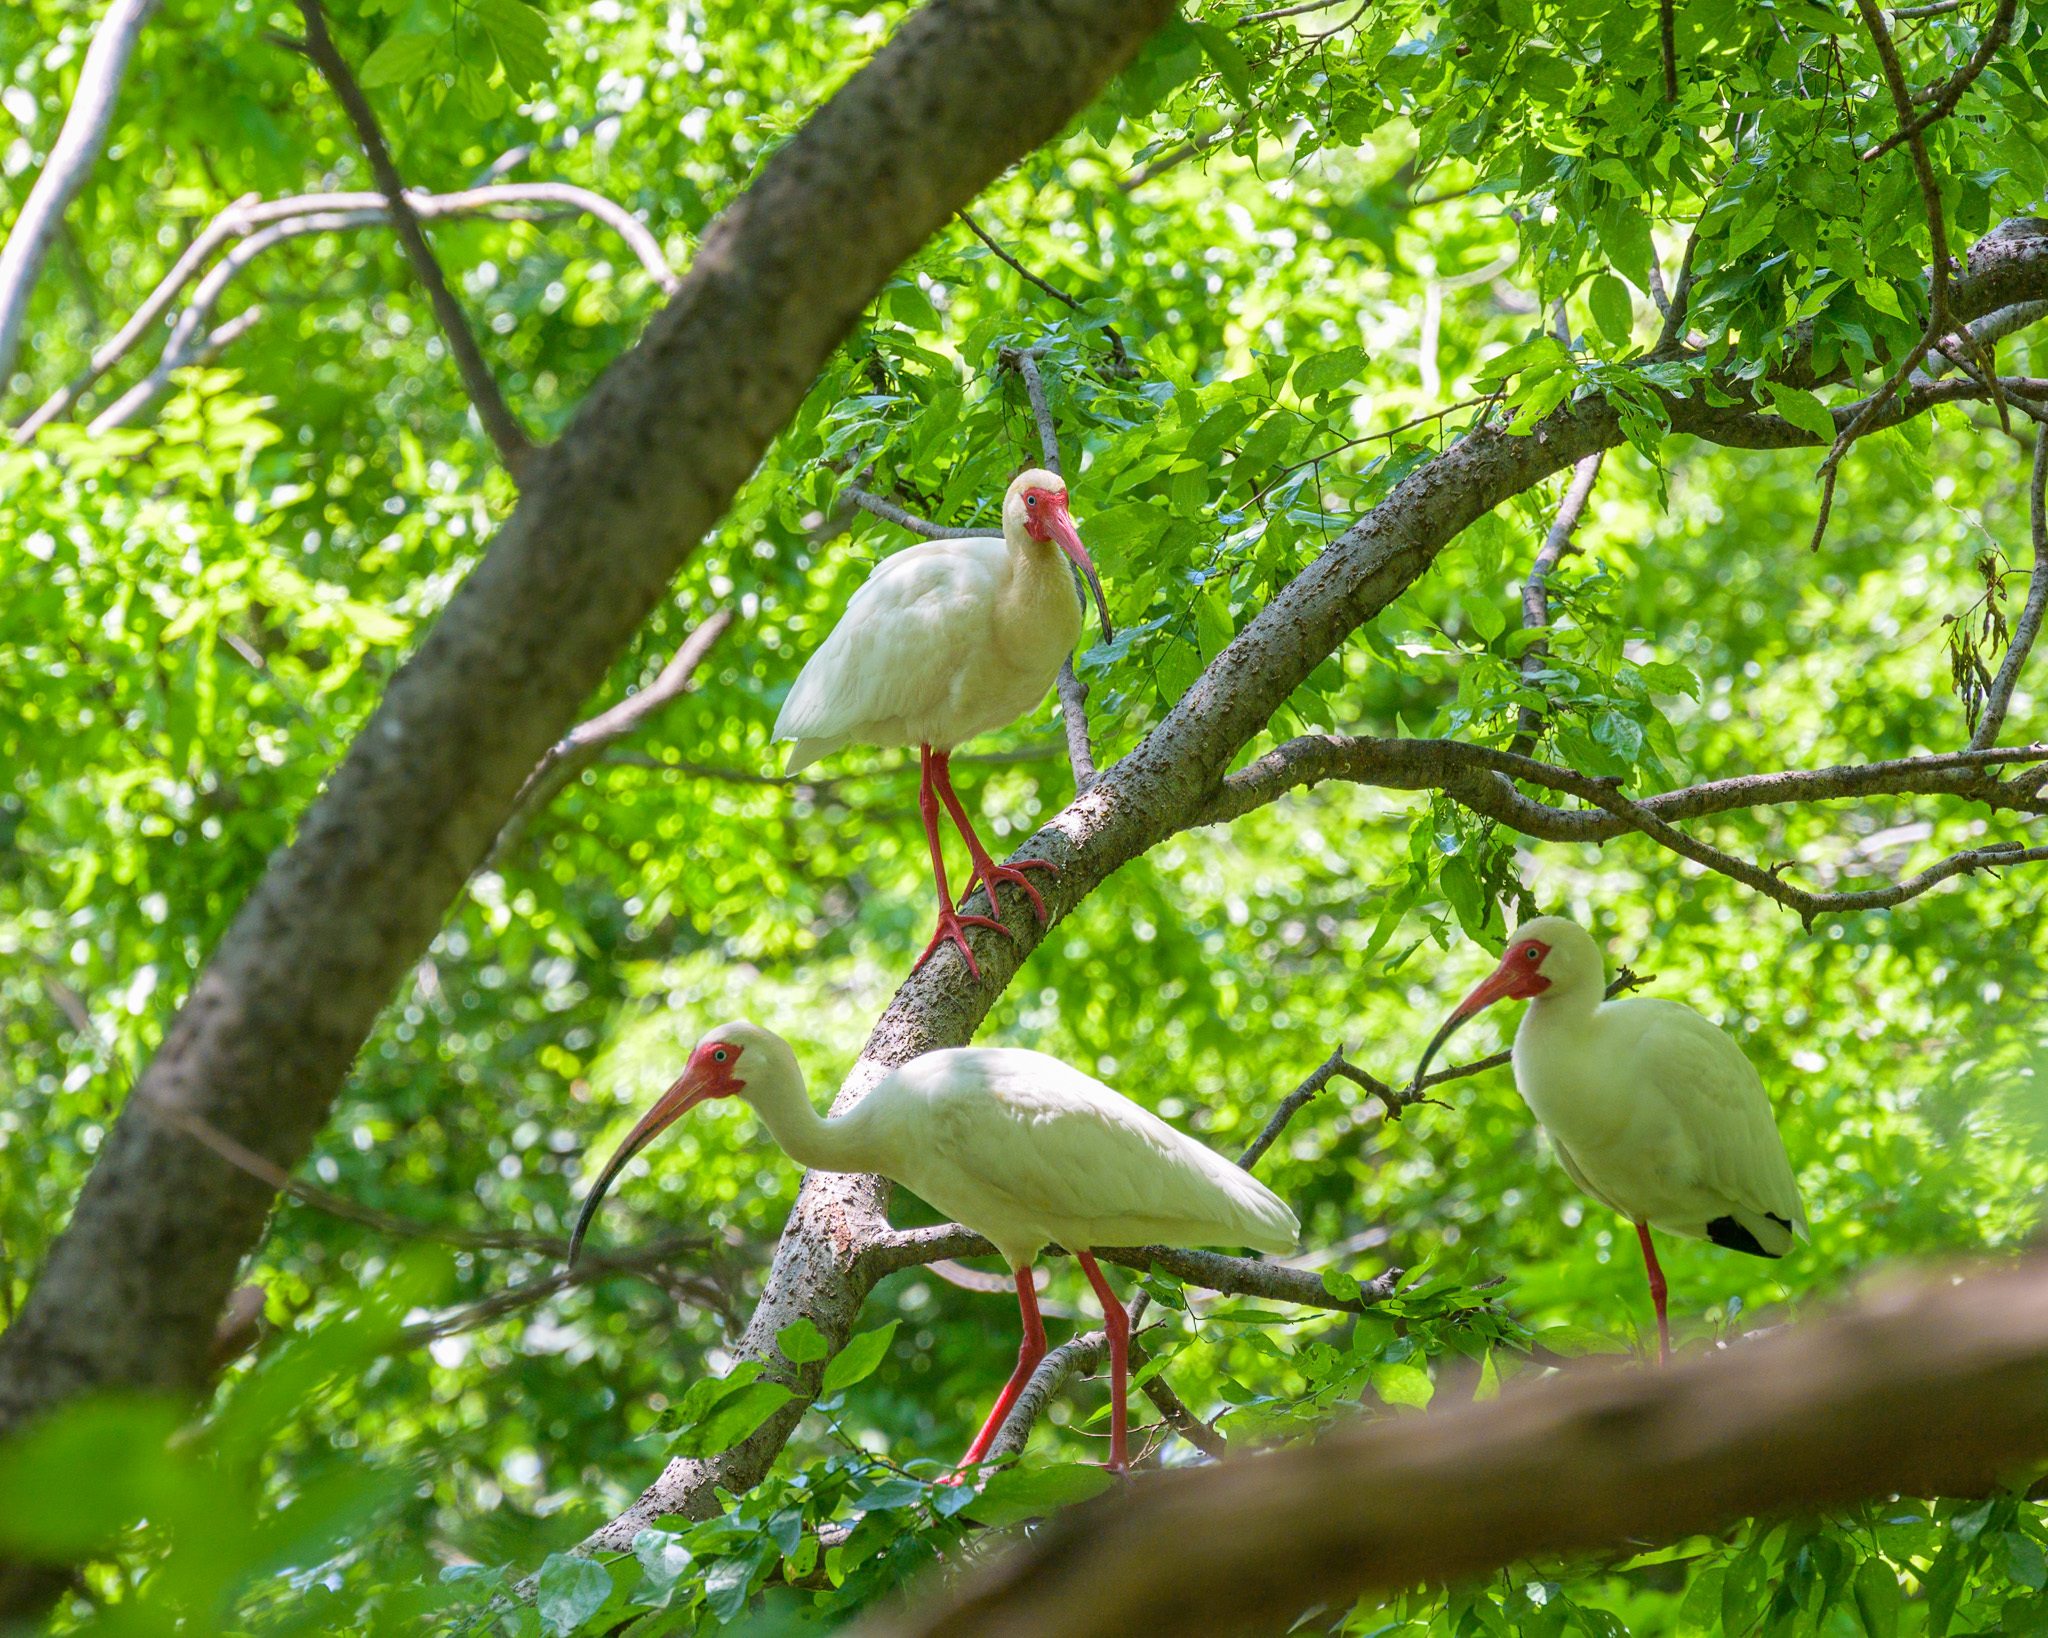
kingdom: Animalia
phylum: Chordata
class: Aves
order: Pelecaniformes
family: Threskiornithidae
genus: Eudocimus
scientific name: Eudocimus albus
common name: White ibis
